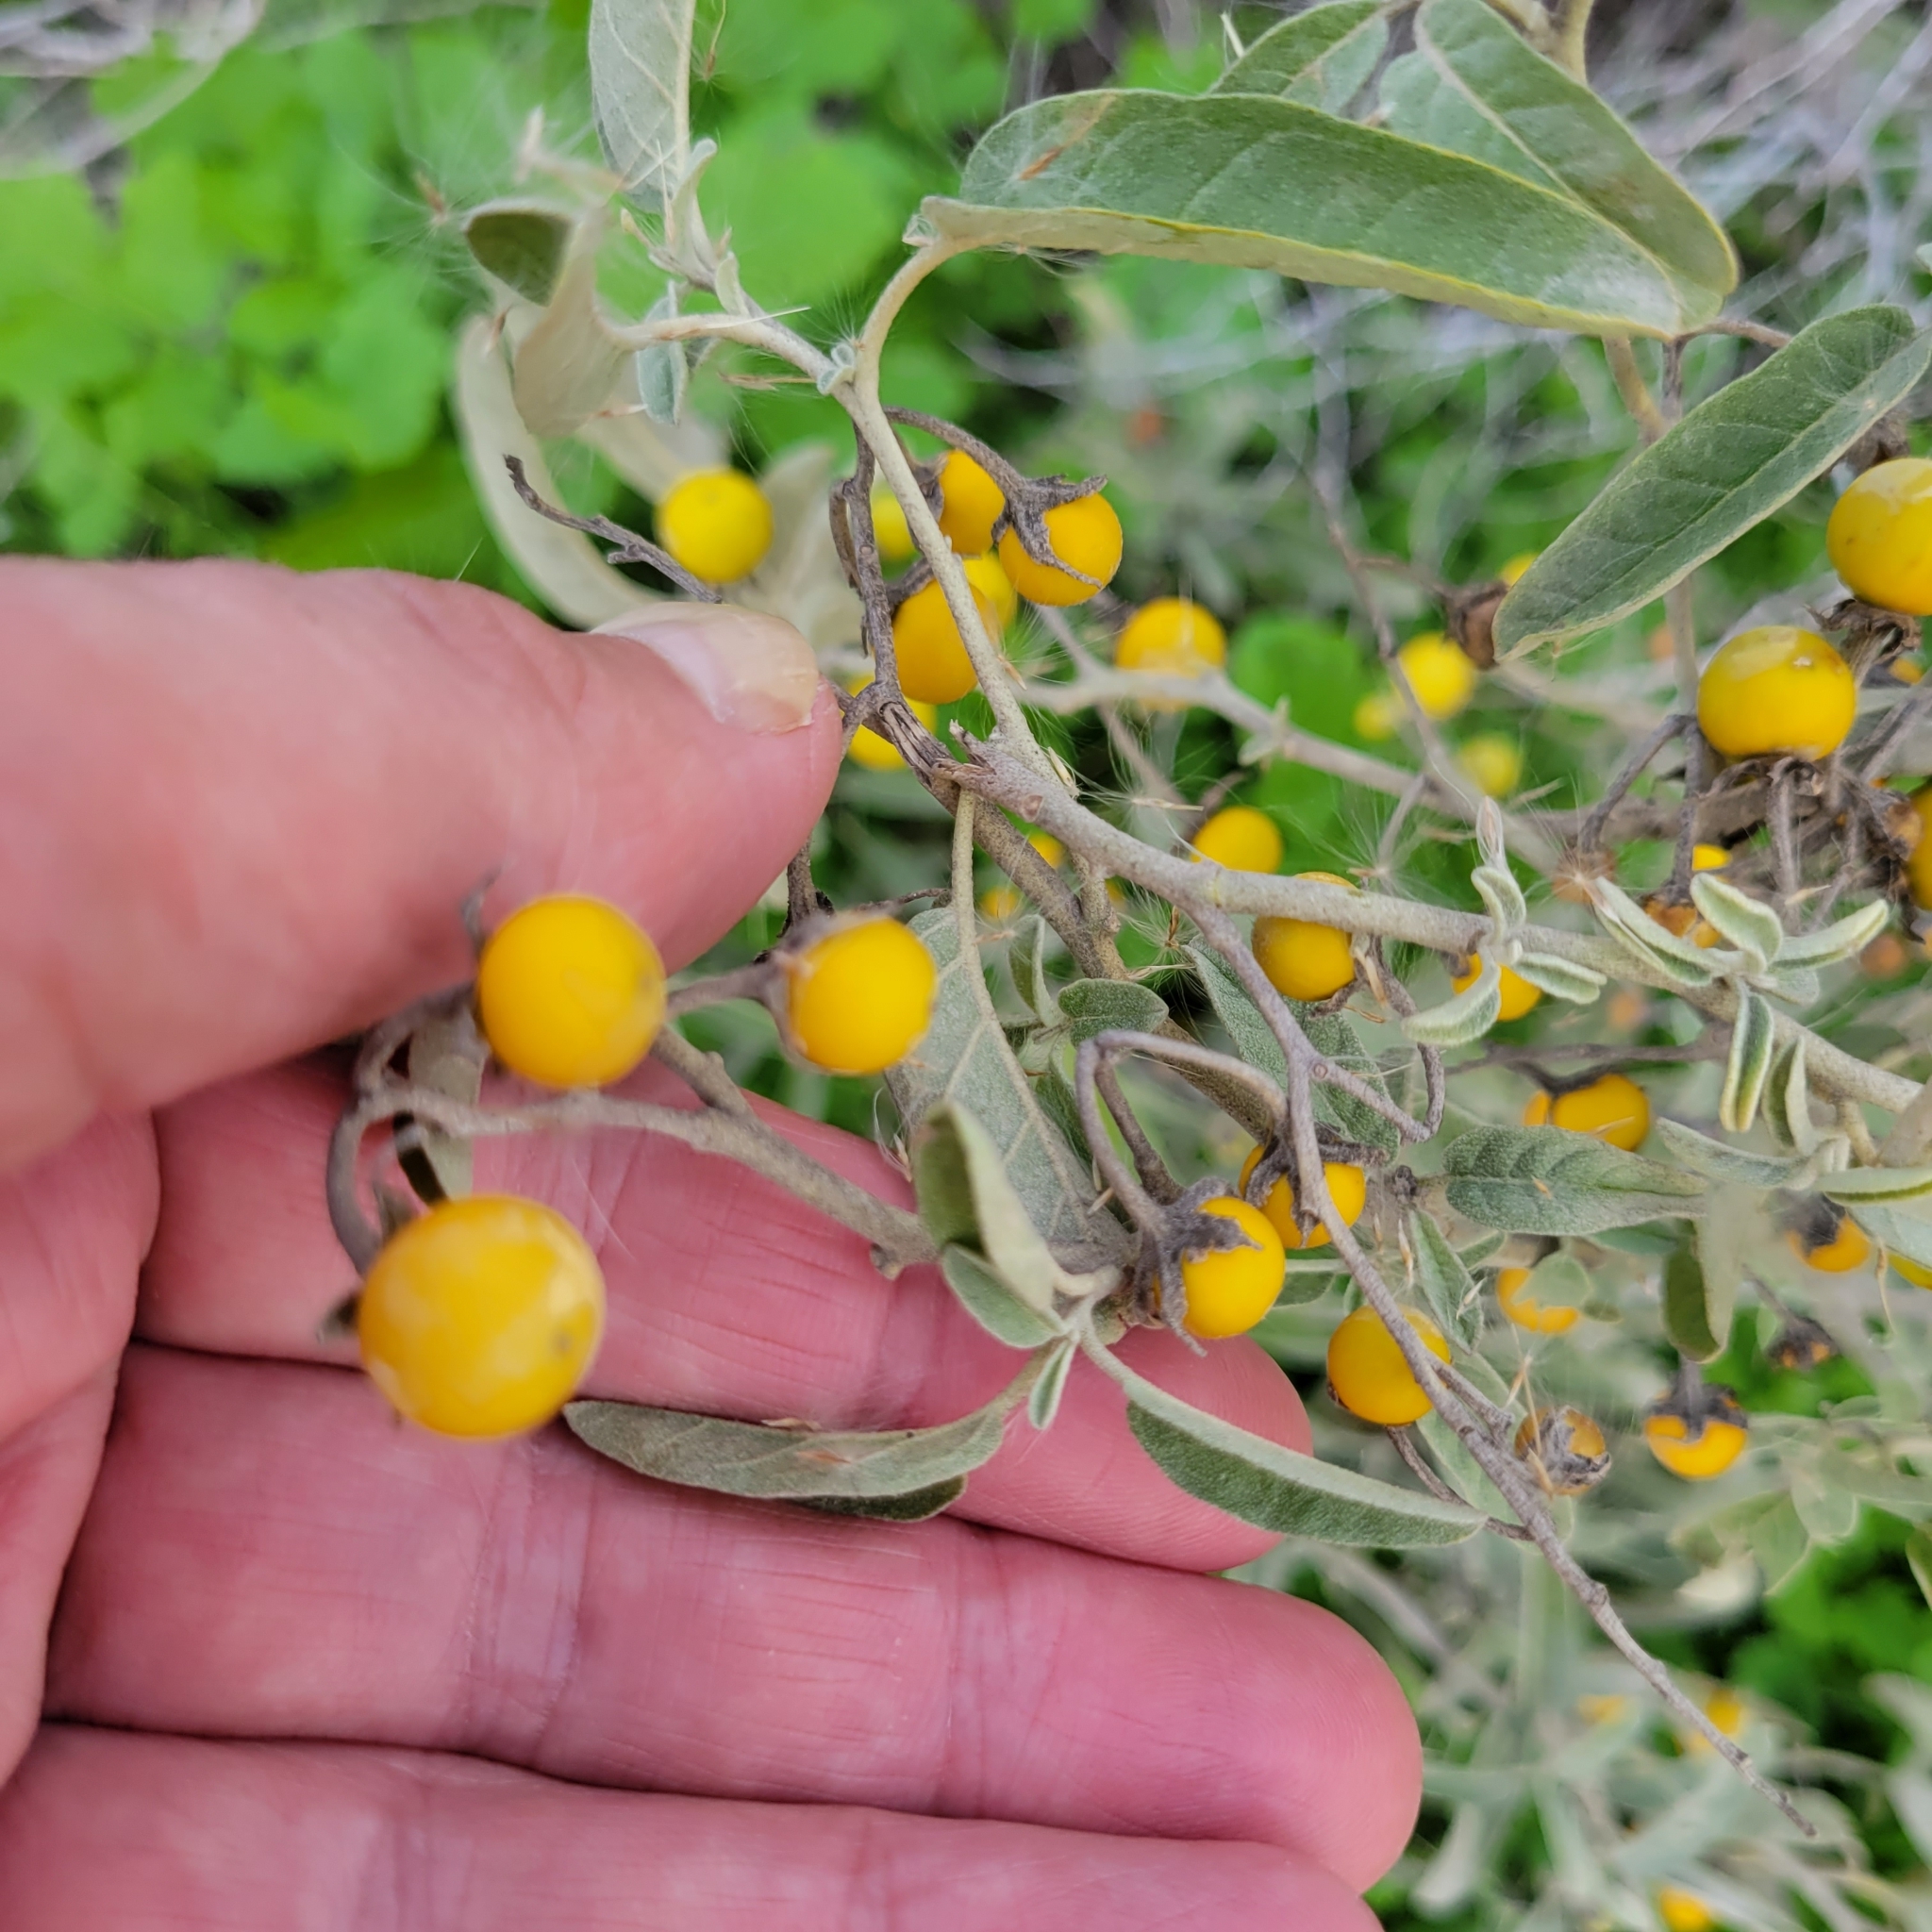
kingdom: Plantae
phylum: Tracheophyta
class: Magnoliopsida
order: Solanales
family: Solanaceae
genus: Solanum
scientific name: Solanum elaeagnifolium
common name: Silverleaf nightshade
